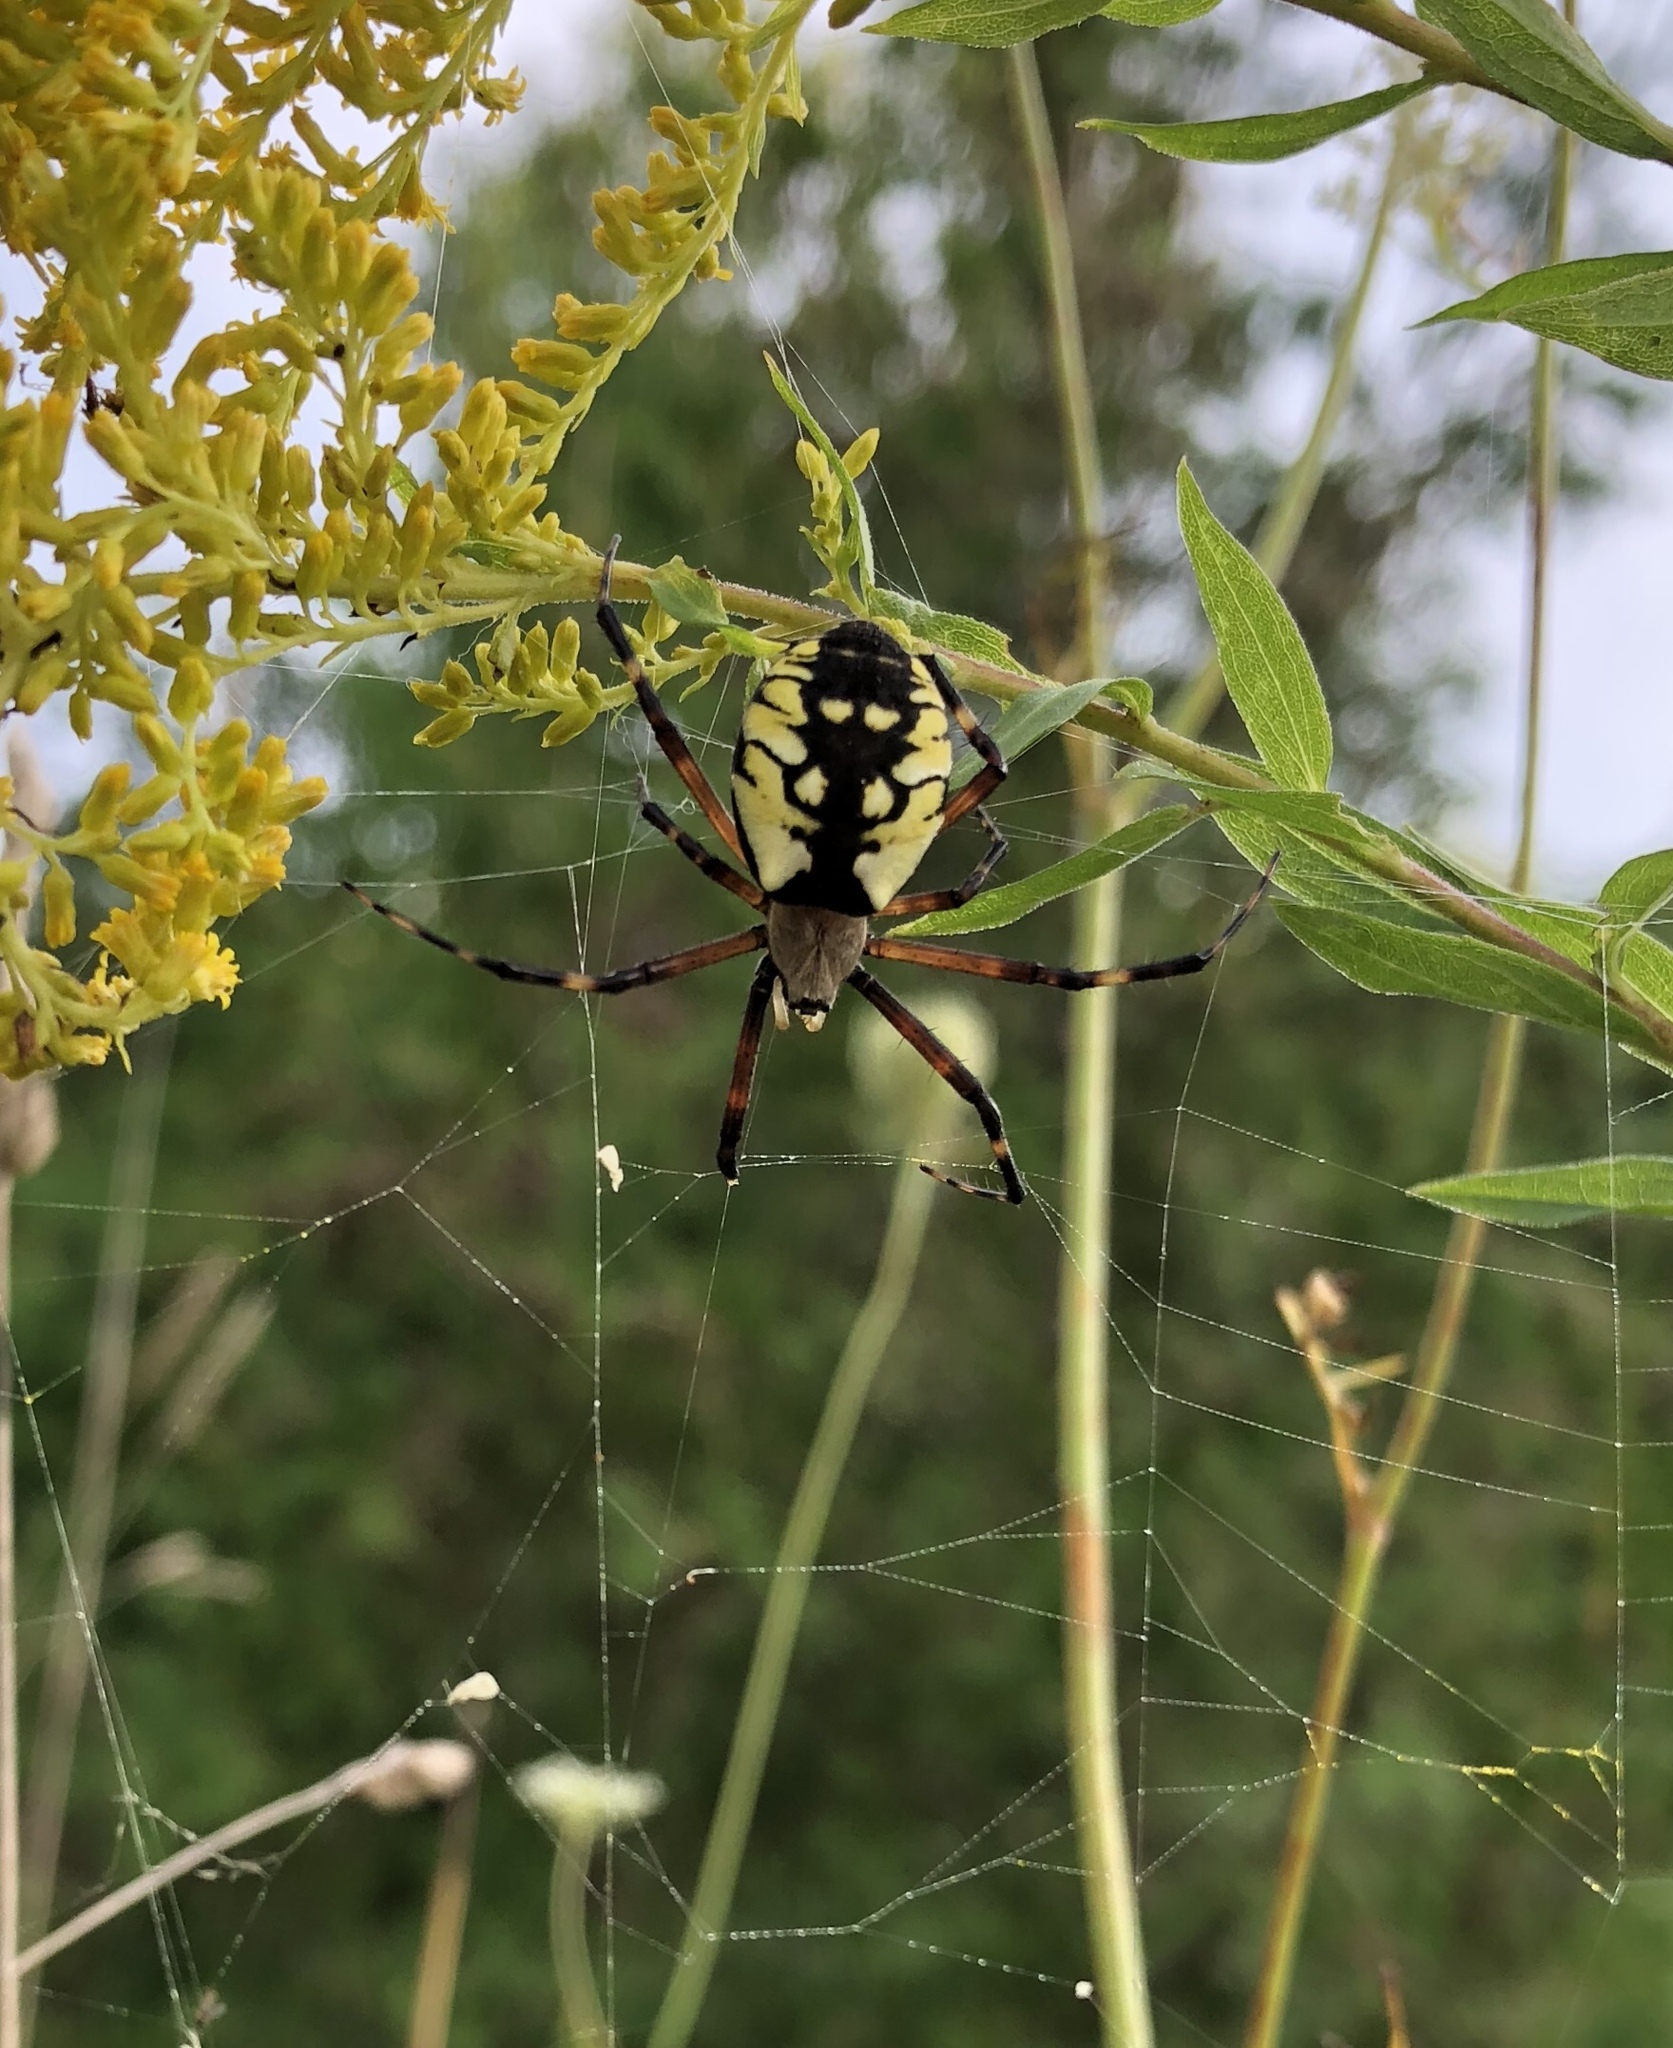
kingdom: Animalia
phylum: Arthropoda
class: Arachnida
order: Araneae
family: Araneidae
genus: Argiope
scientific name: Argiope aurantia
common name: Orb weavers
